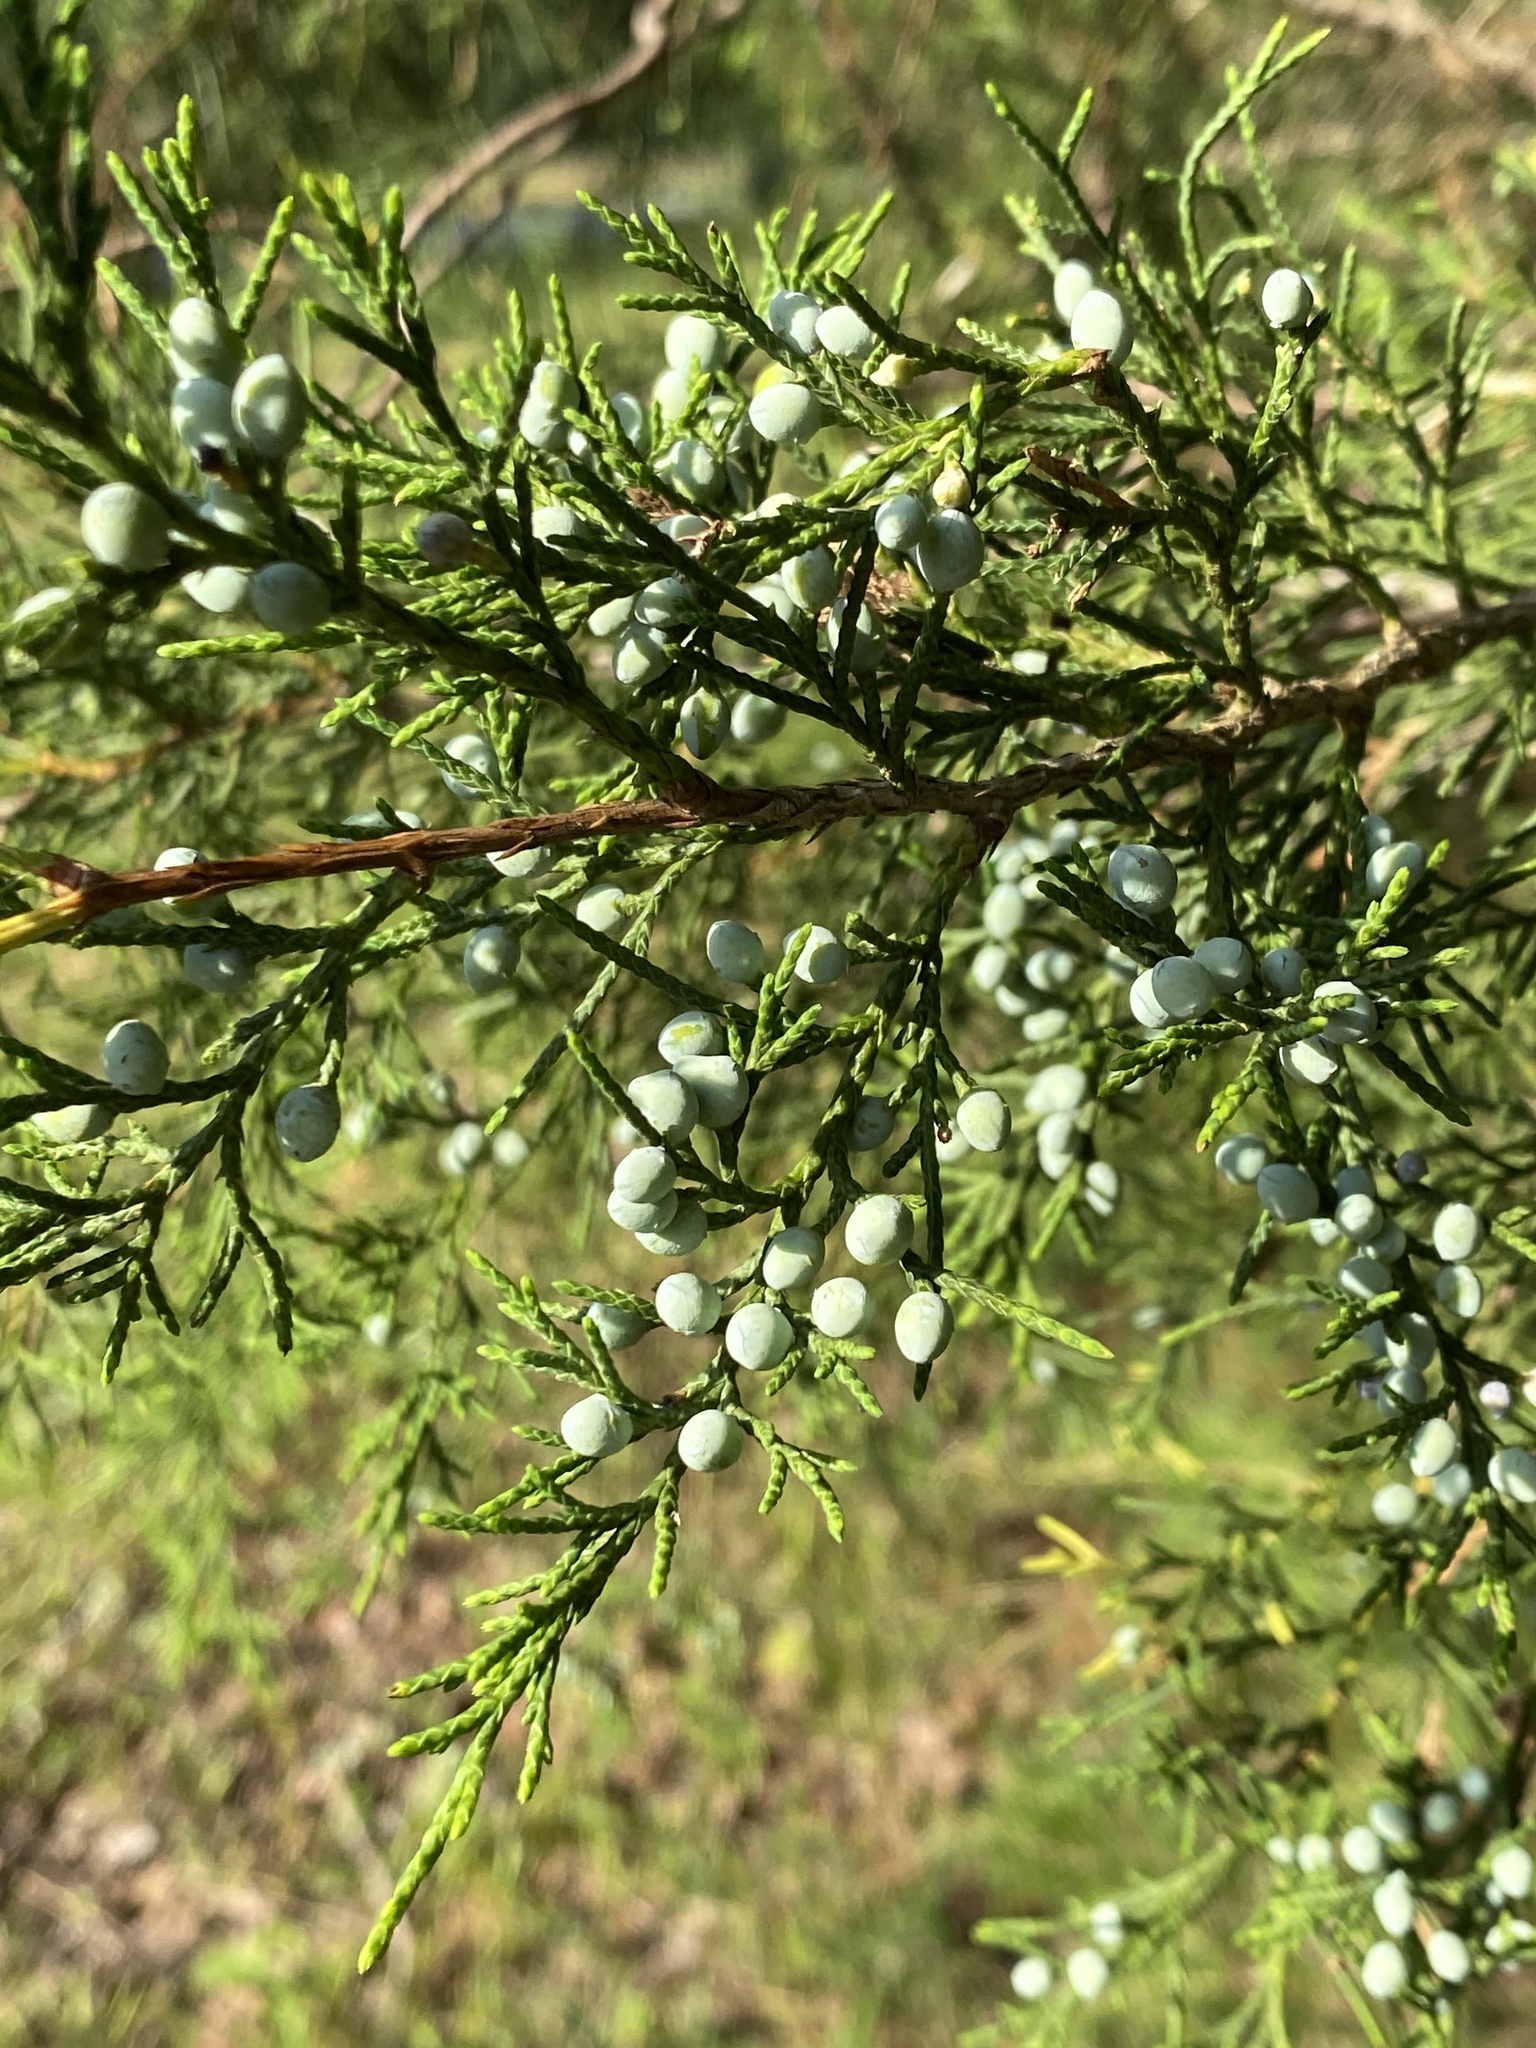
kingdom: Plantae
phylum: Tracheophyta
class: Pinopsida
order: Pinales
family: Cupressaceae
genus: Juniperus
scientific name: Juniperus virginiana
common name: Red juniper
